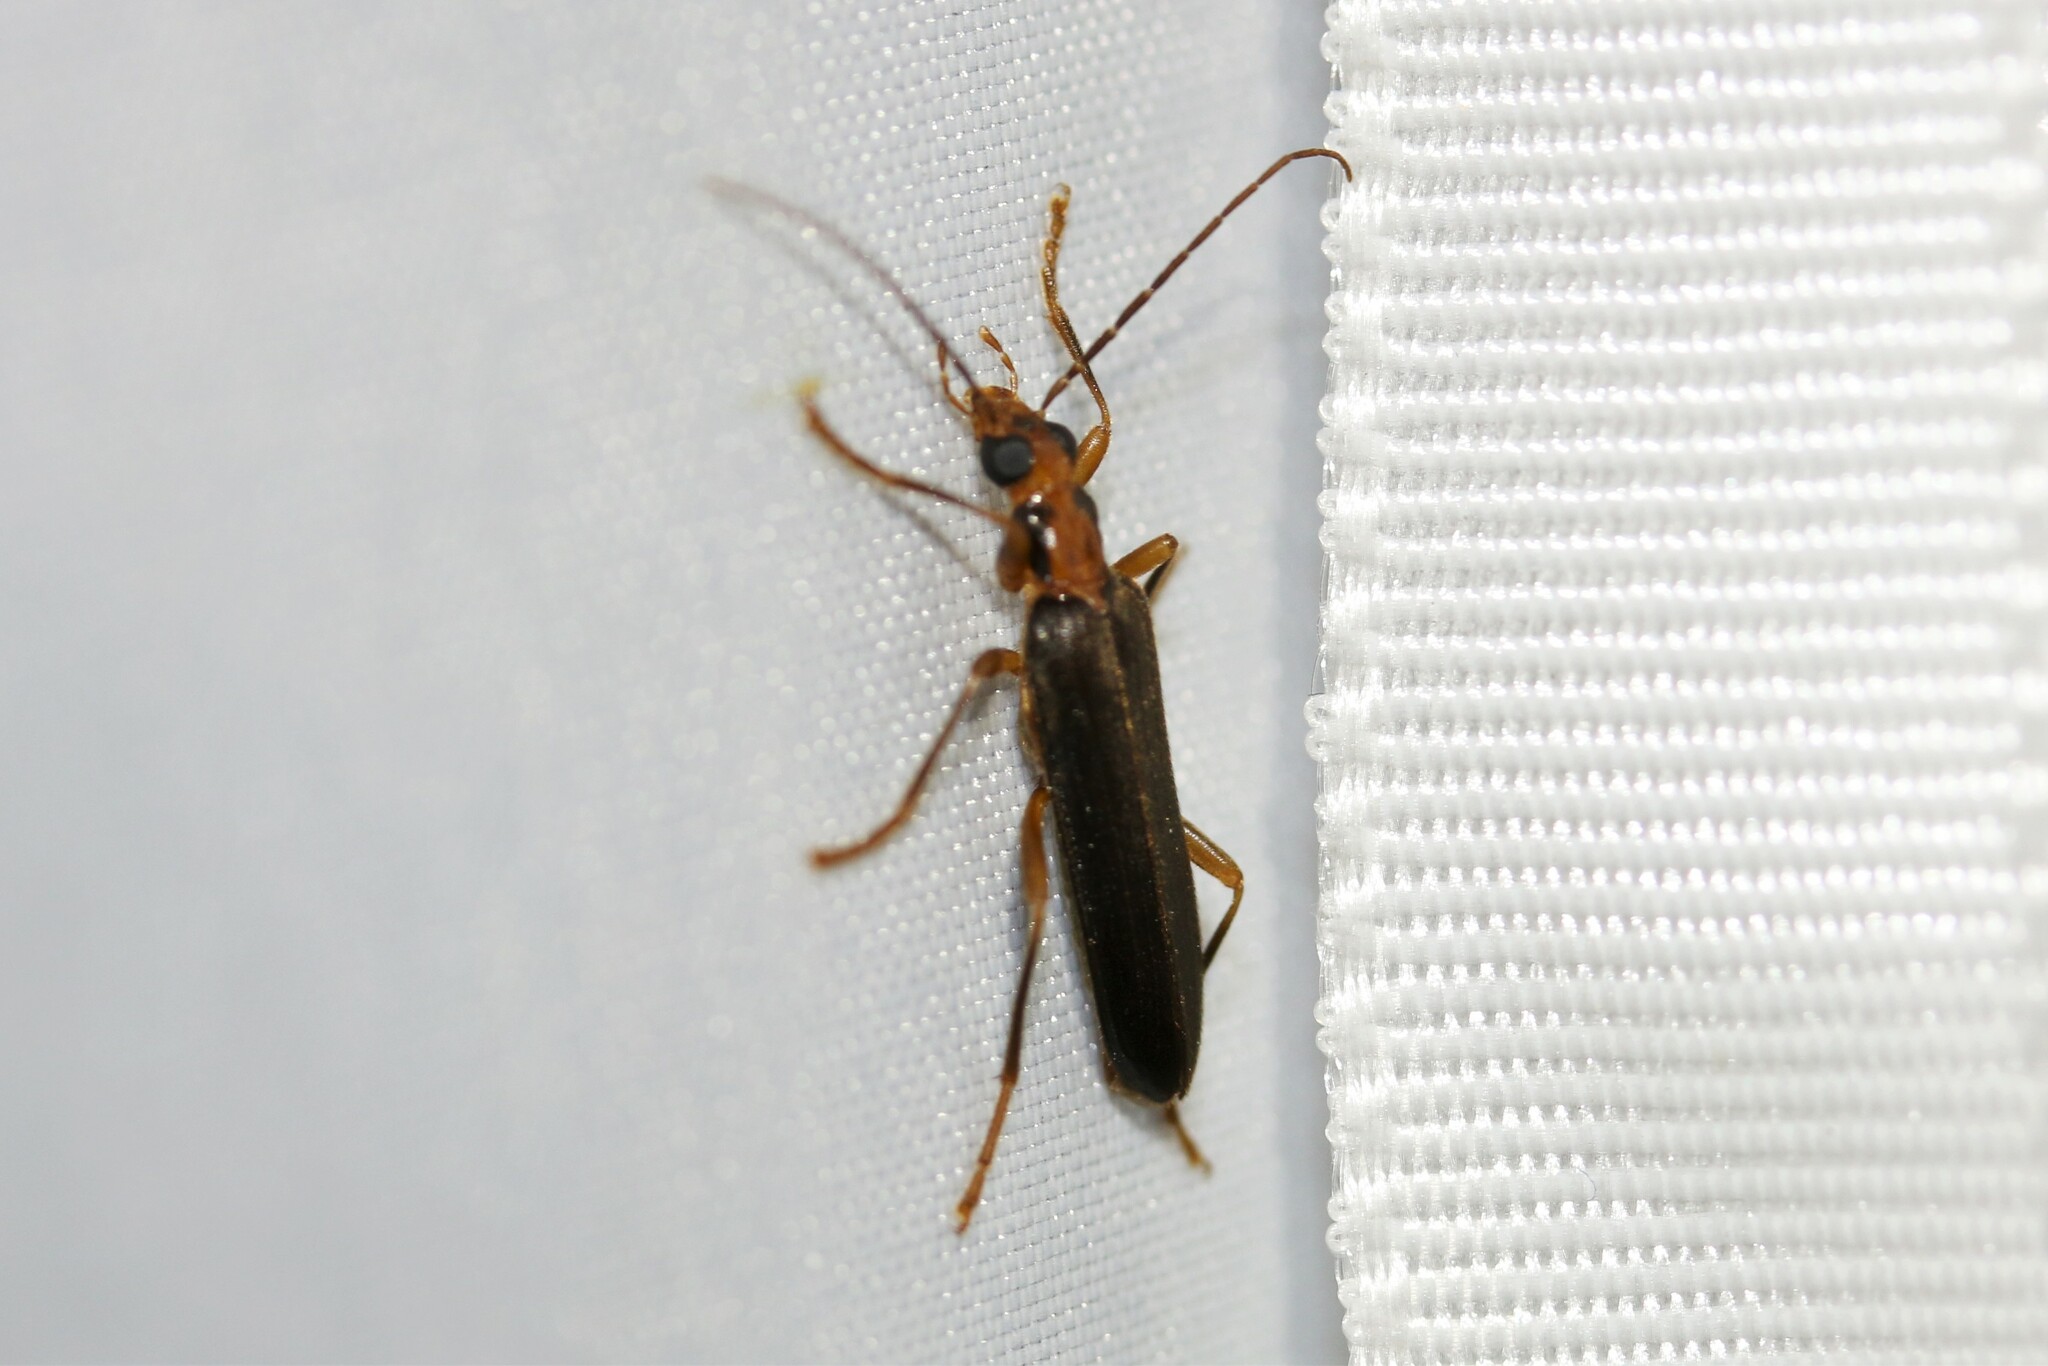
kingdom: Animalia
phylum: Arthropoda
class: Insecta
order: Coleoptera
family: Oedemeridae
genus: Nacerdes
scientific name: Nacerdes carniolica
